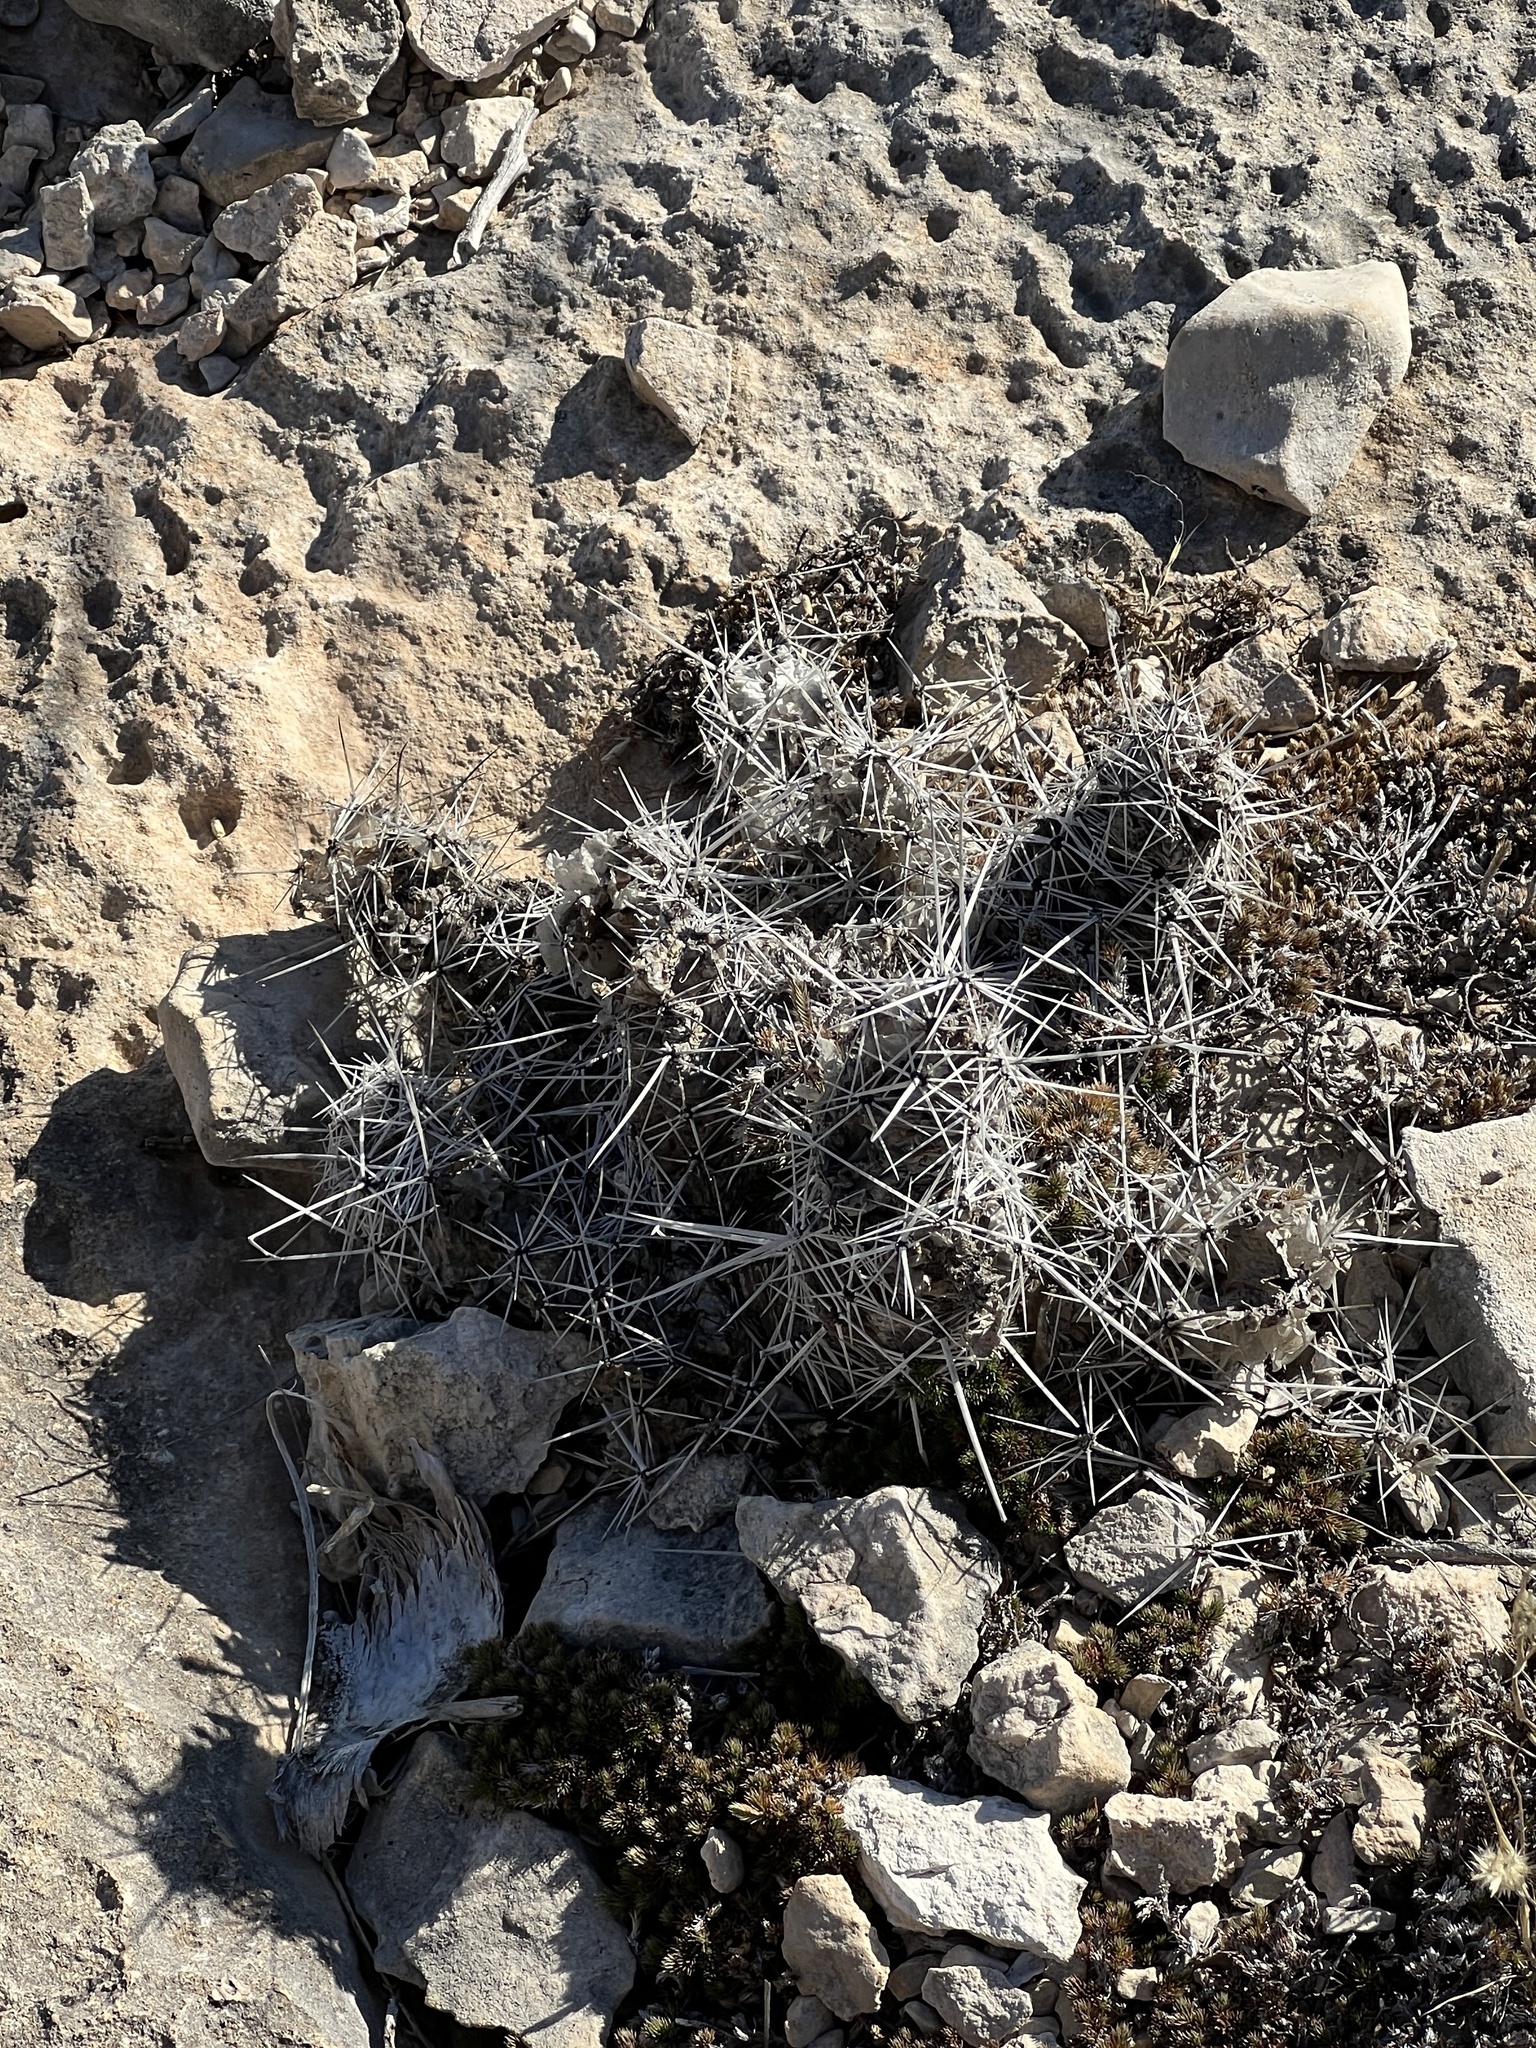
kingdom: Plantae
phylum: Tracheophyta
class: Magnoliopsida
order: Caryophyllales
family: Cactaceae
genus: Echinocereus
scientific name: Echinocereus enneacanthus
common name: Pitaya
